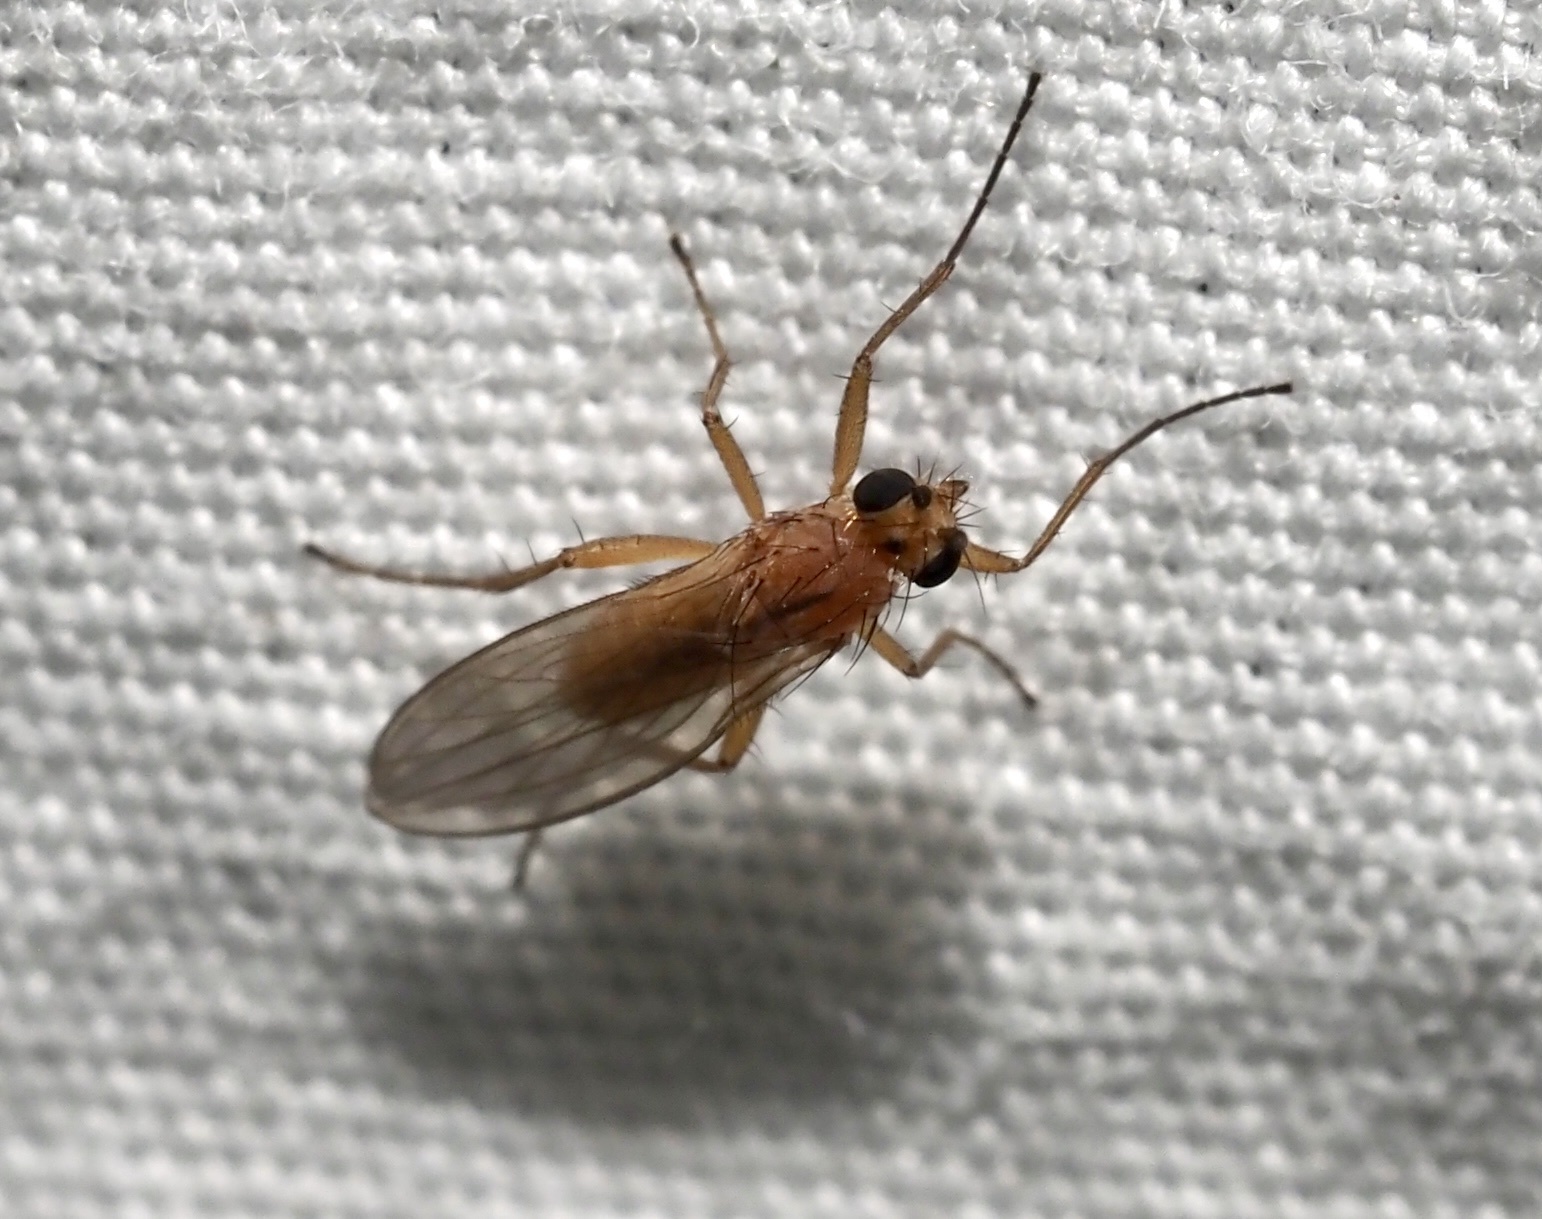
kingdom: Animalia
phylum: Arthropoda
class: Insecta
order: Diptera
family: Lonchopteridae
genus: Lonchoptera
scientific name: Lonchoptera bifurcata
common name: Spear-winged fly
